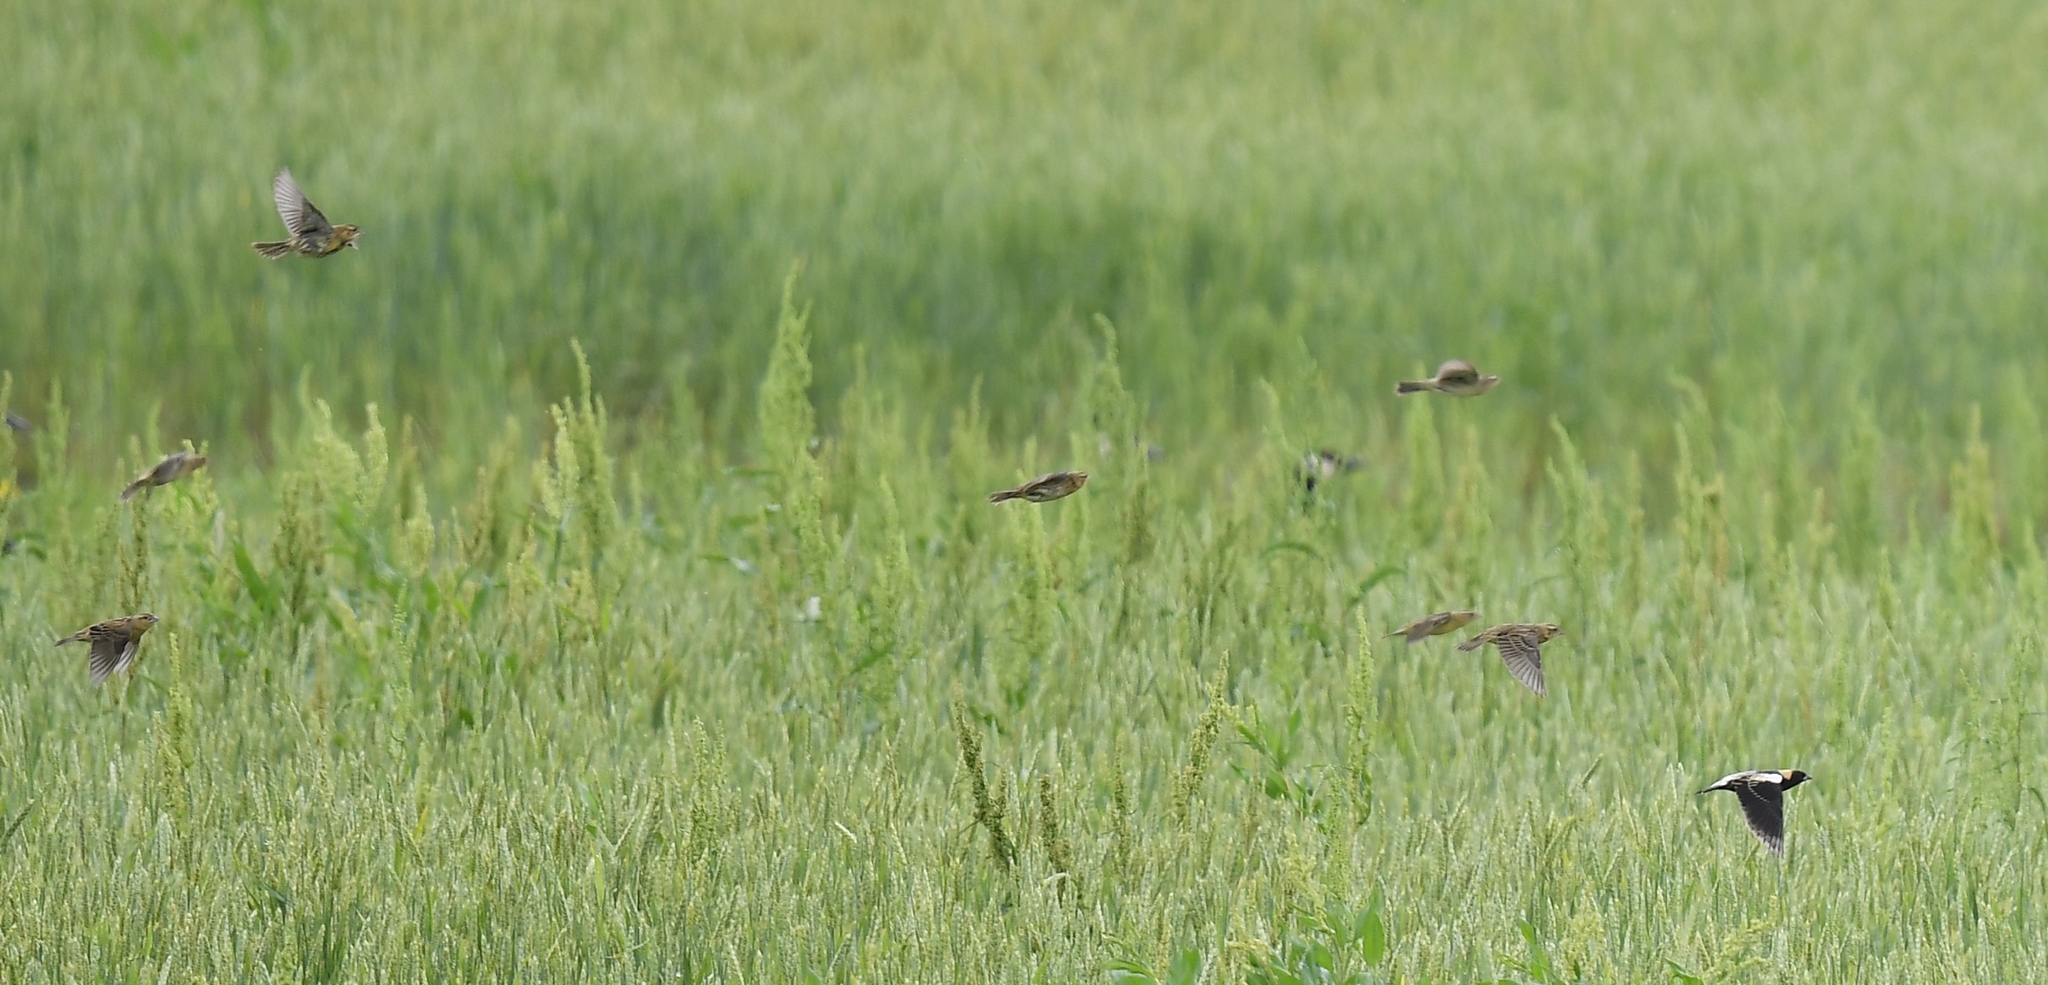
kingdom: Animalia
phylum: Chordata
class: Aves
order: Passeriformes
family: Icteridae
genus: Dolichonyx
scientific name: Dolichonyx oryzivorus
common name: Bobolink
